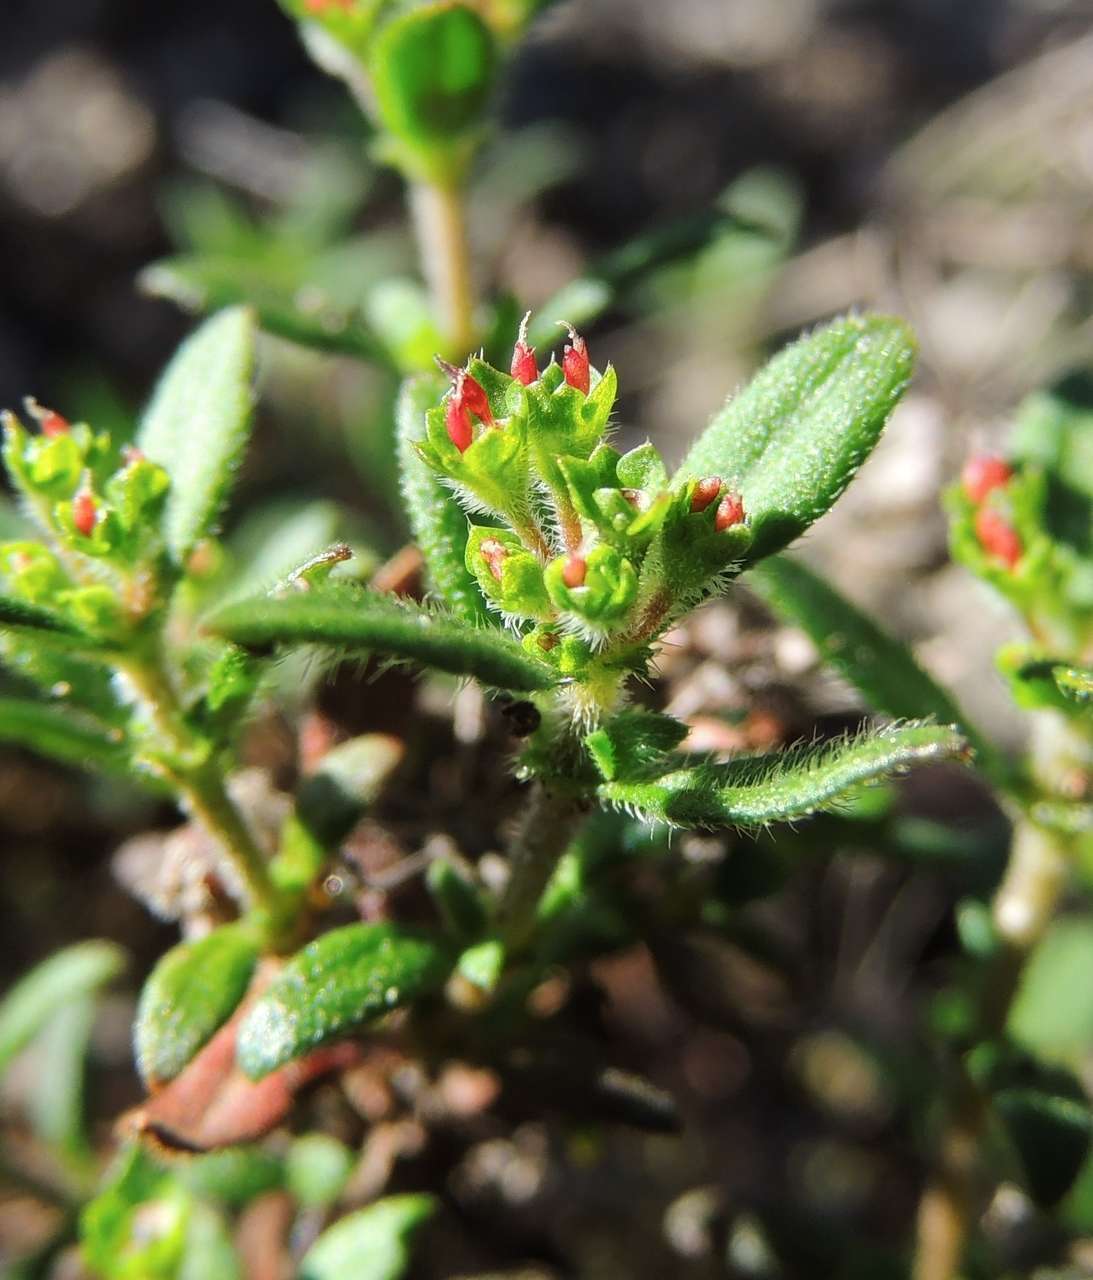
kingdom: Plantae
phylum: Tracheophyta
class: Magnoliopsida
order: Gentianales
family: Rubiaceae
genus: Pomax
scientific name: Pomax umbellata
